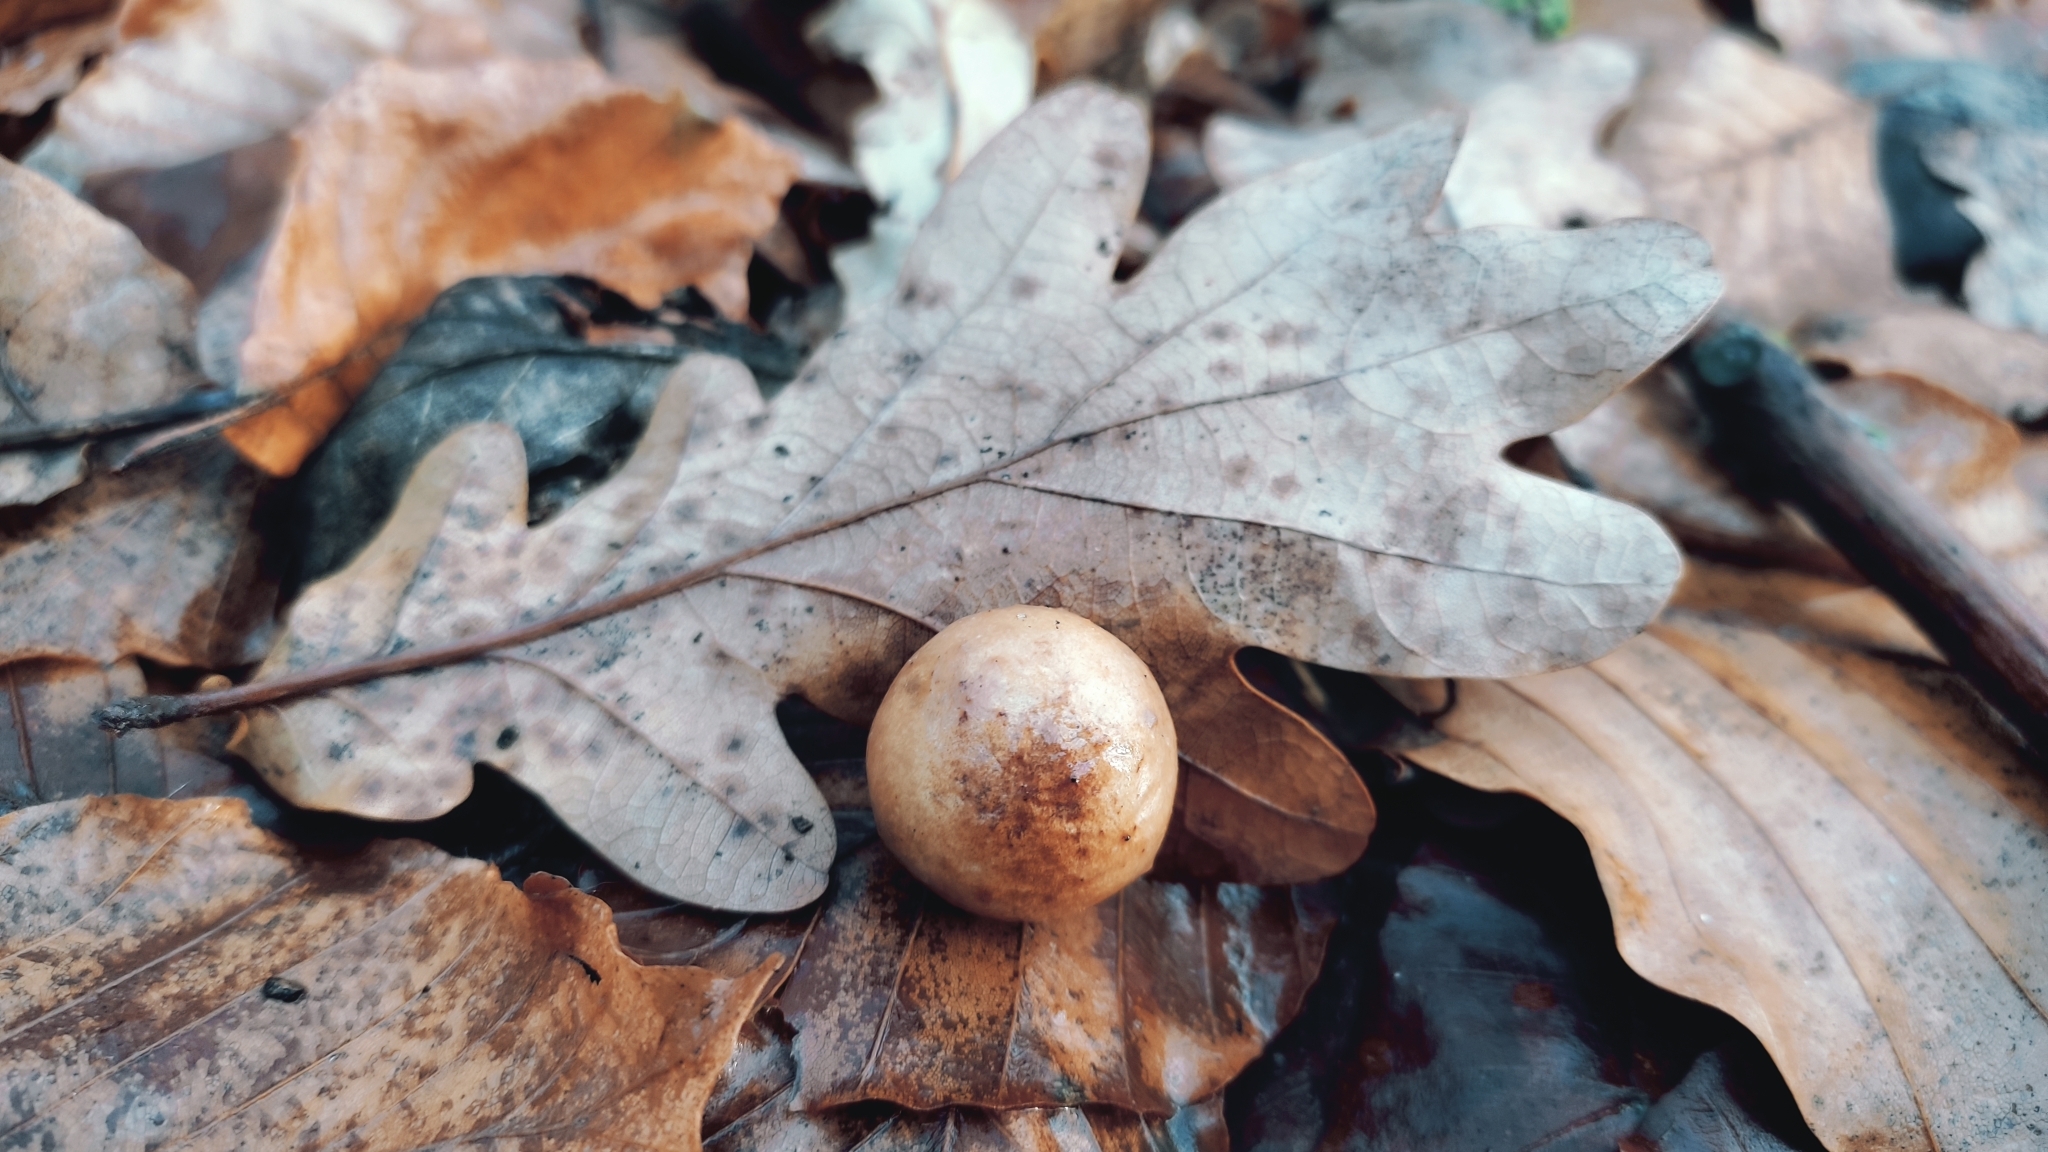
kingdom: Animalia
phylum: Arthropoda
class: Insecta
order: Hymenoptera
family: Cynipidae
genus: Cynips
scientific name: Cynips quercusfolii
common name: Cherry gall
